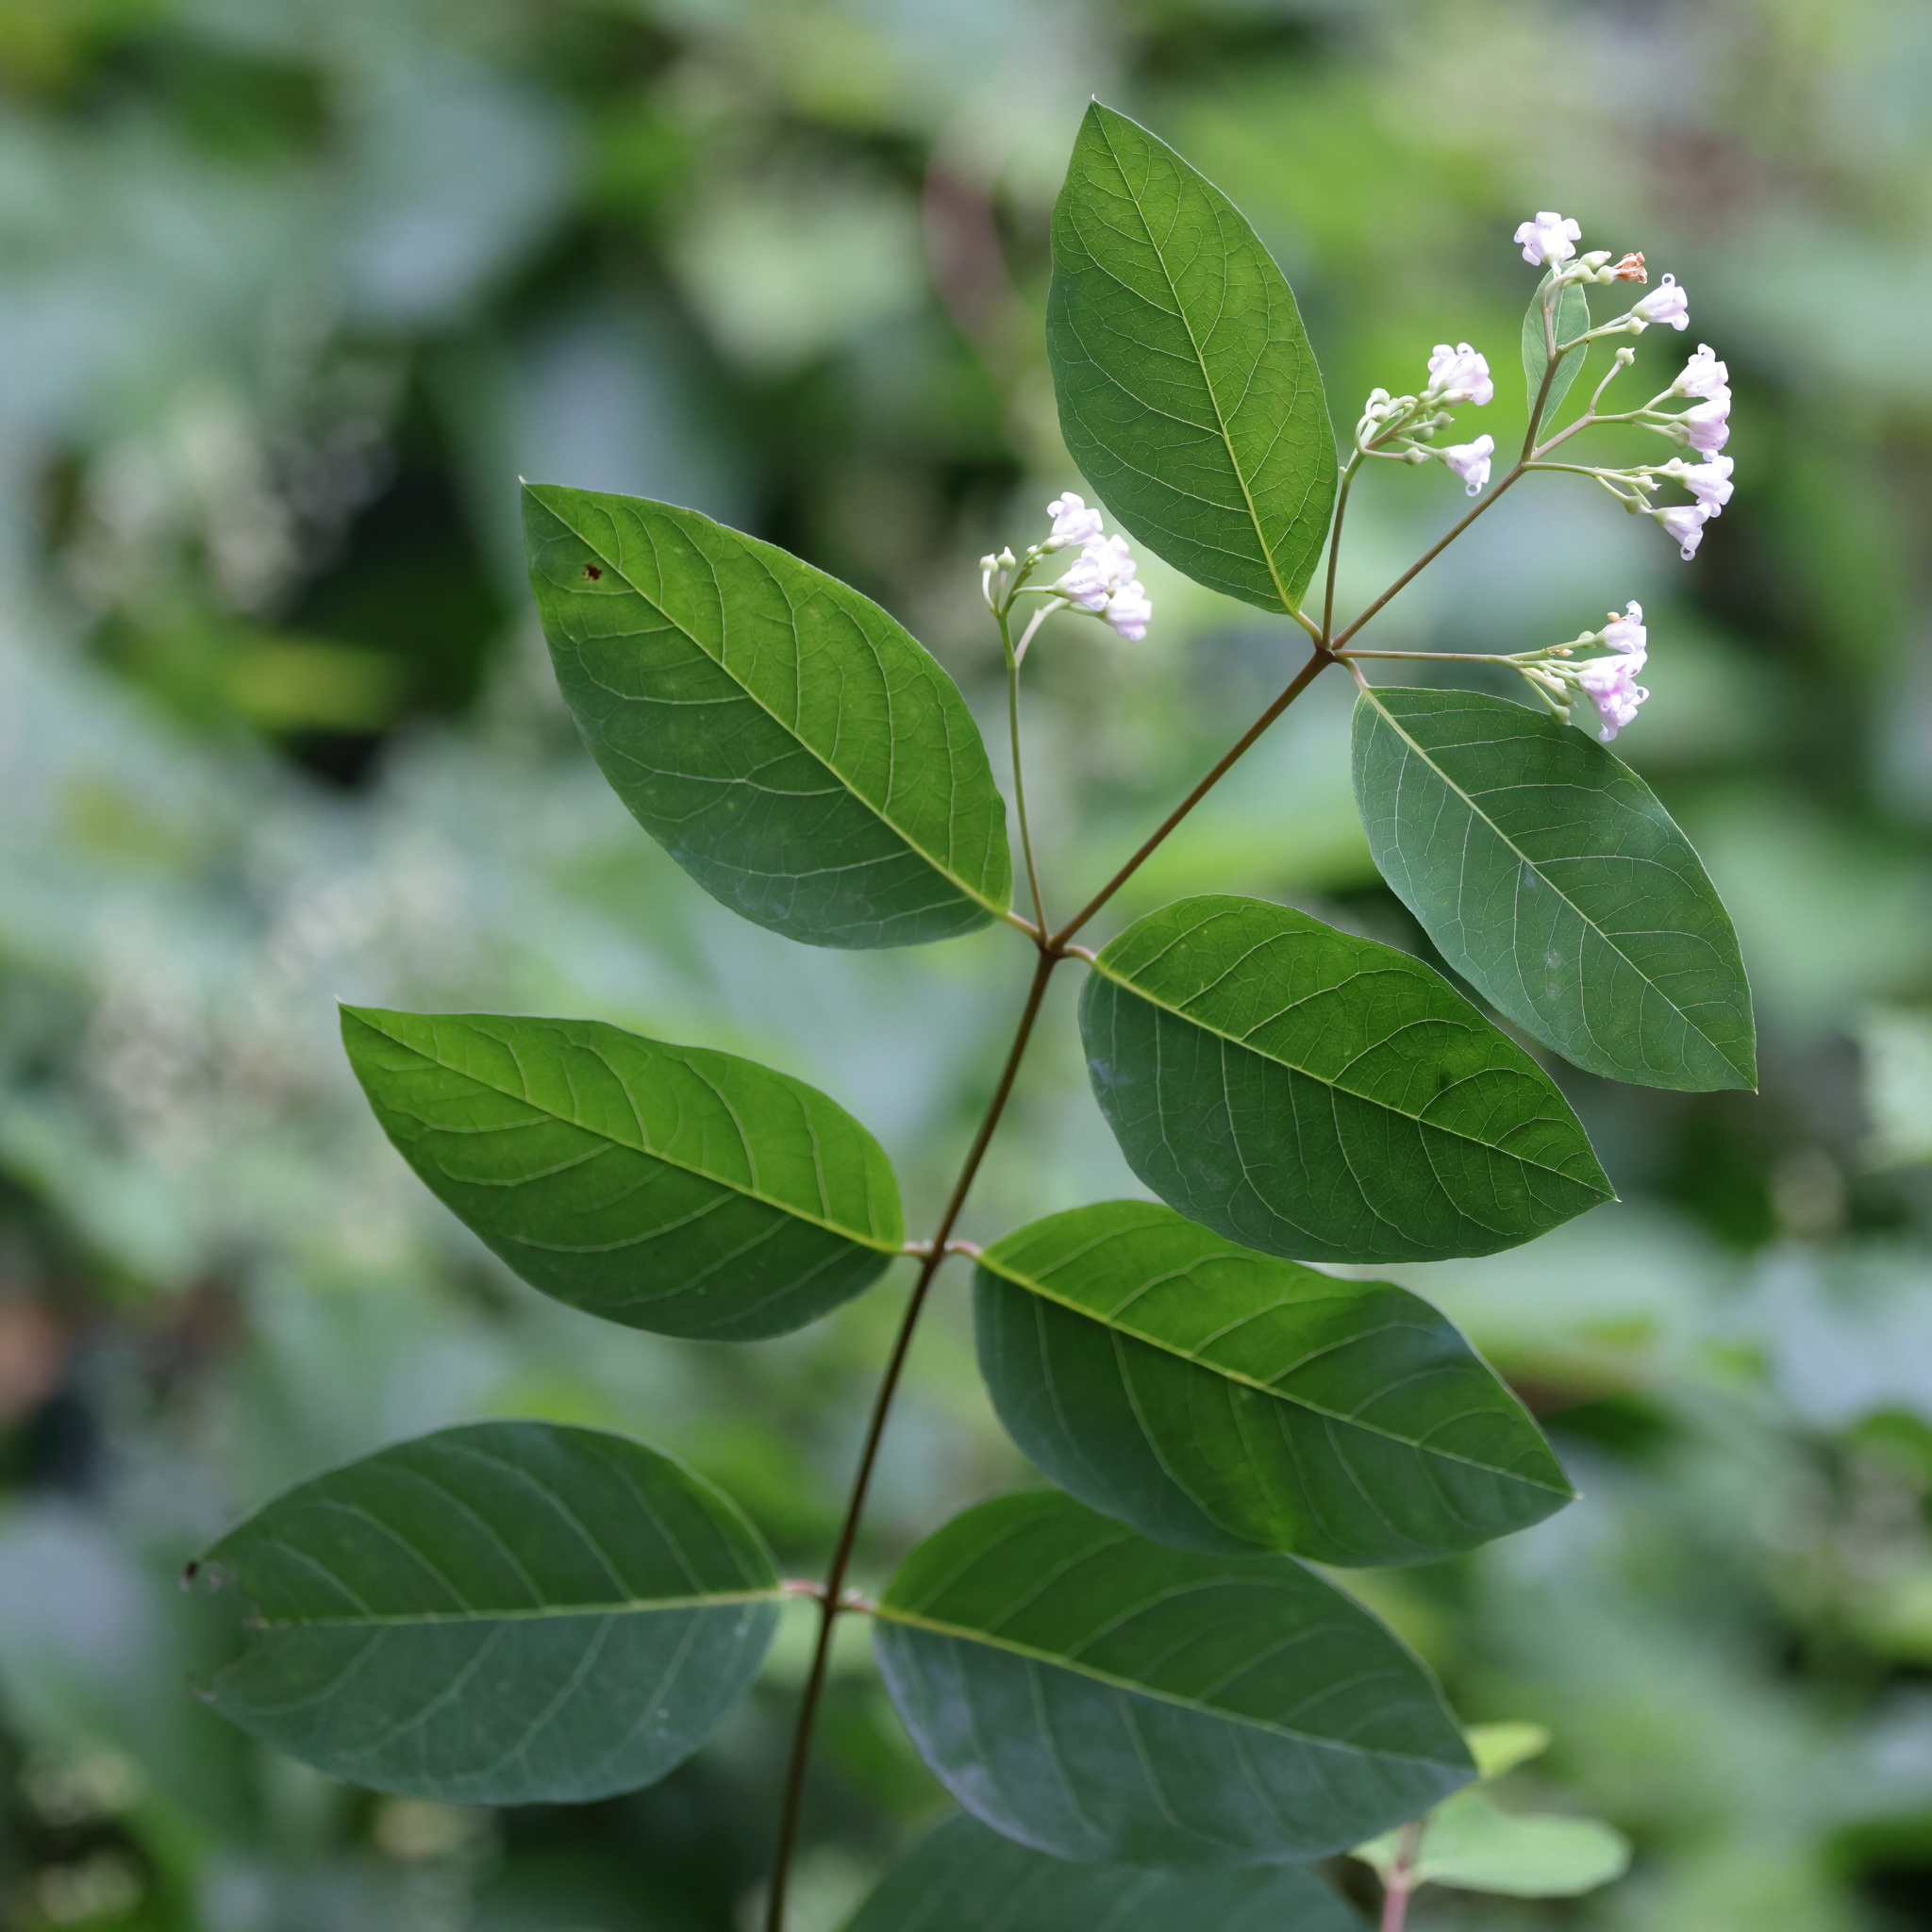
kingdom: Plantae
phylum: Tracheophyta
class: Magnoliopsida
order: Gentianales
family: Apocynaceae
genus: Apocynum
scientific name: Apocynum androsaemifolium
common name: Spreading dogbane
